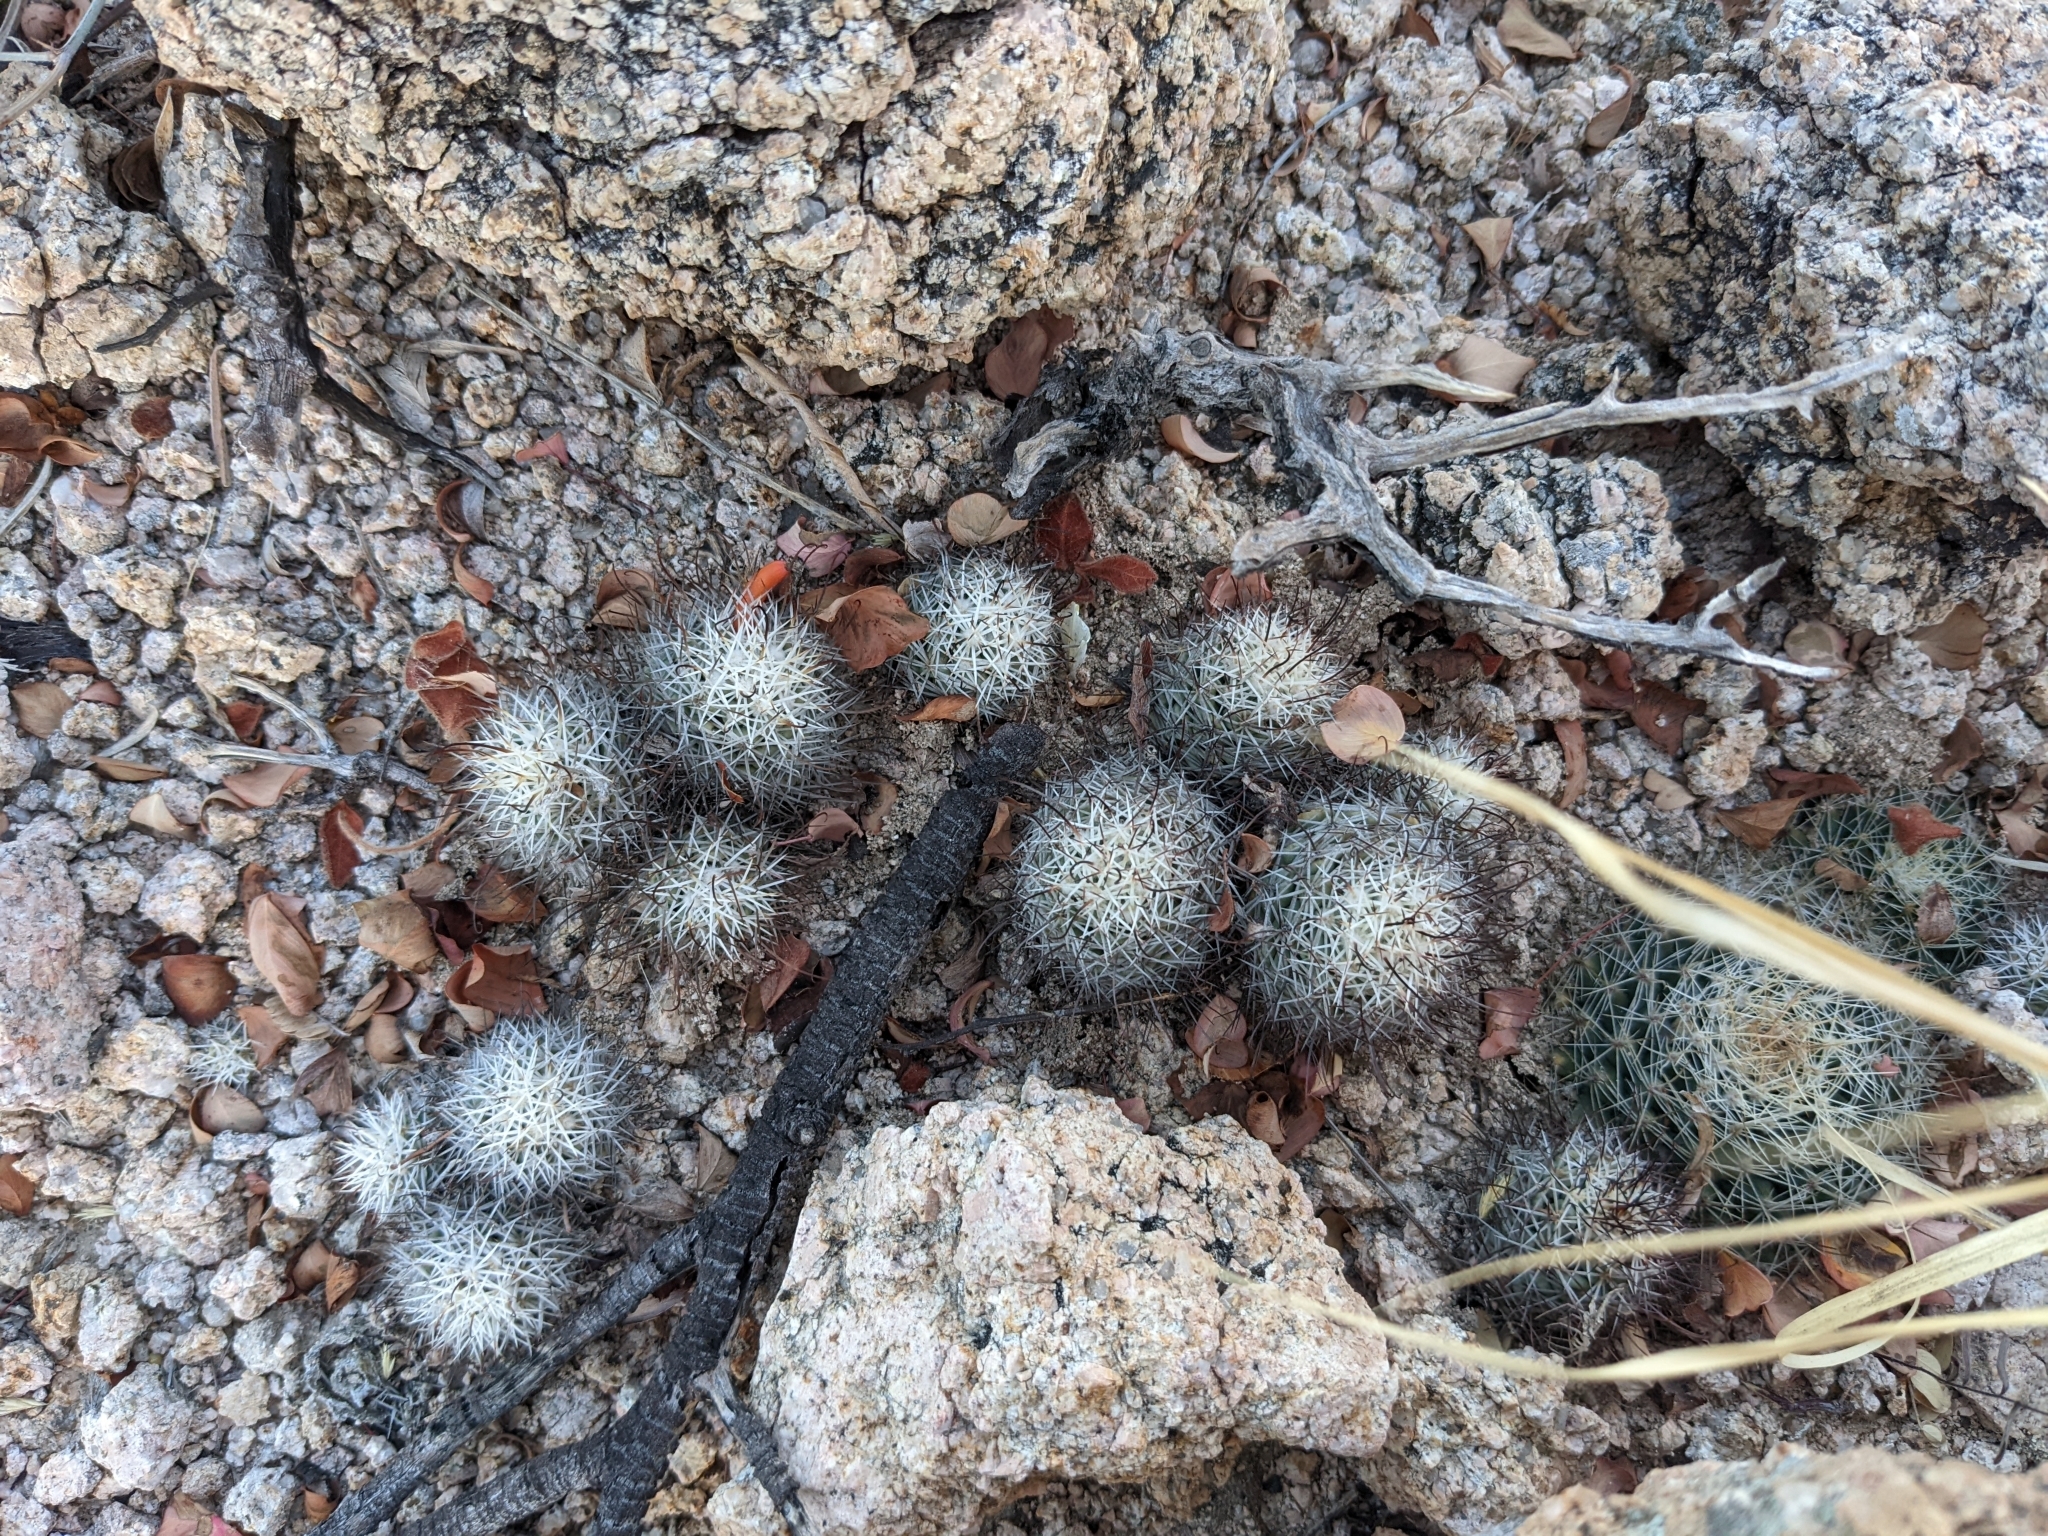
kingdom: Plantae
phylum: Tracheophyta
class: Magnoliopsida
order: Caryophyllales
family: Cactaceae
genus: Cochemiea
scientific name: Cochemiea schumannii
